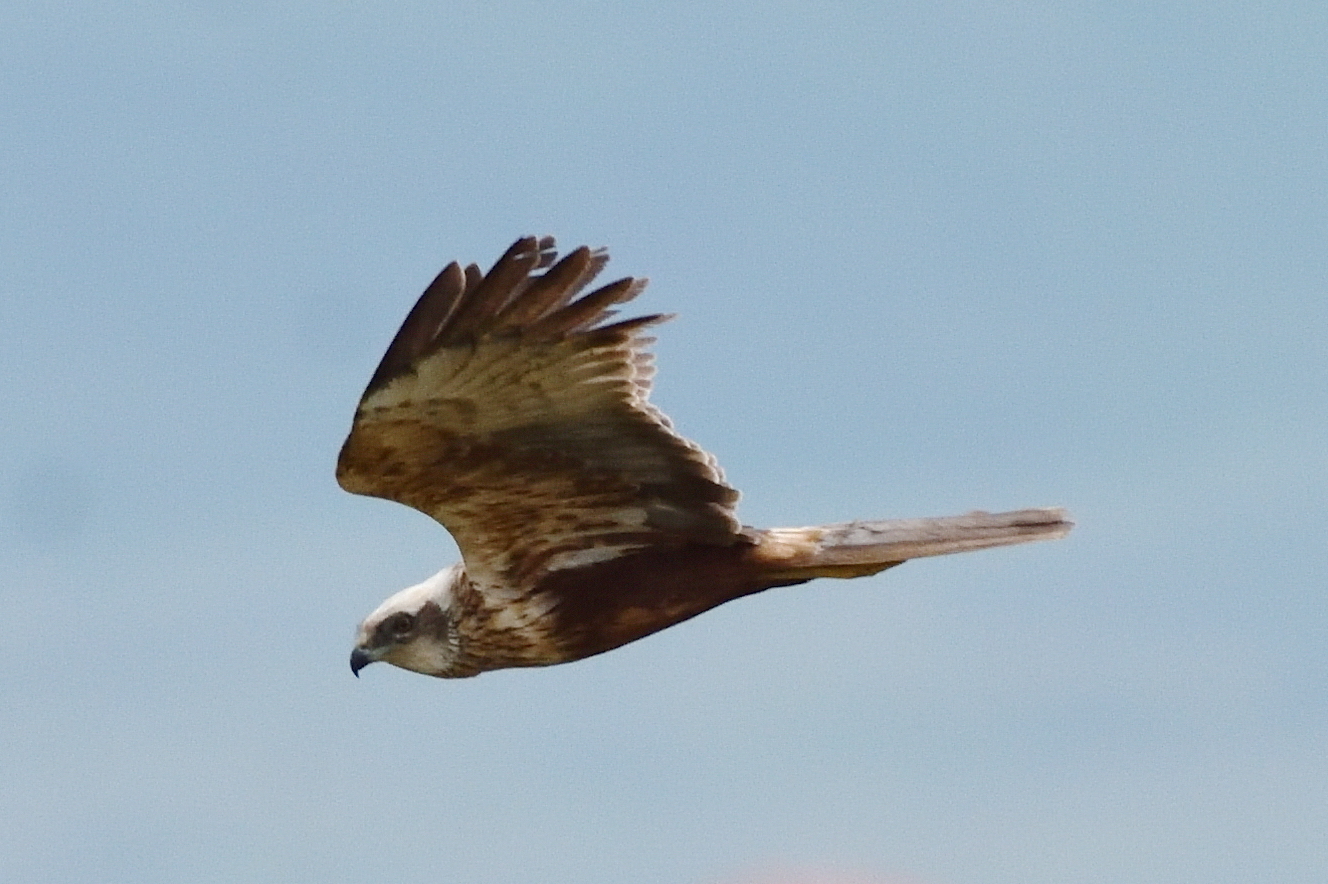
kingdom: Animalia
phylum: Chordata
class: Aves
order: Accipitriformes
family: Accipitridae
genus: Circus
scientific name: Circus aeruginosus
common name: Western marsh harrier
